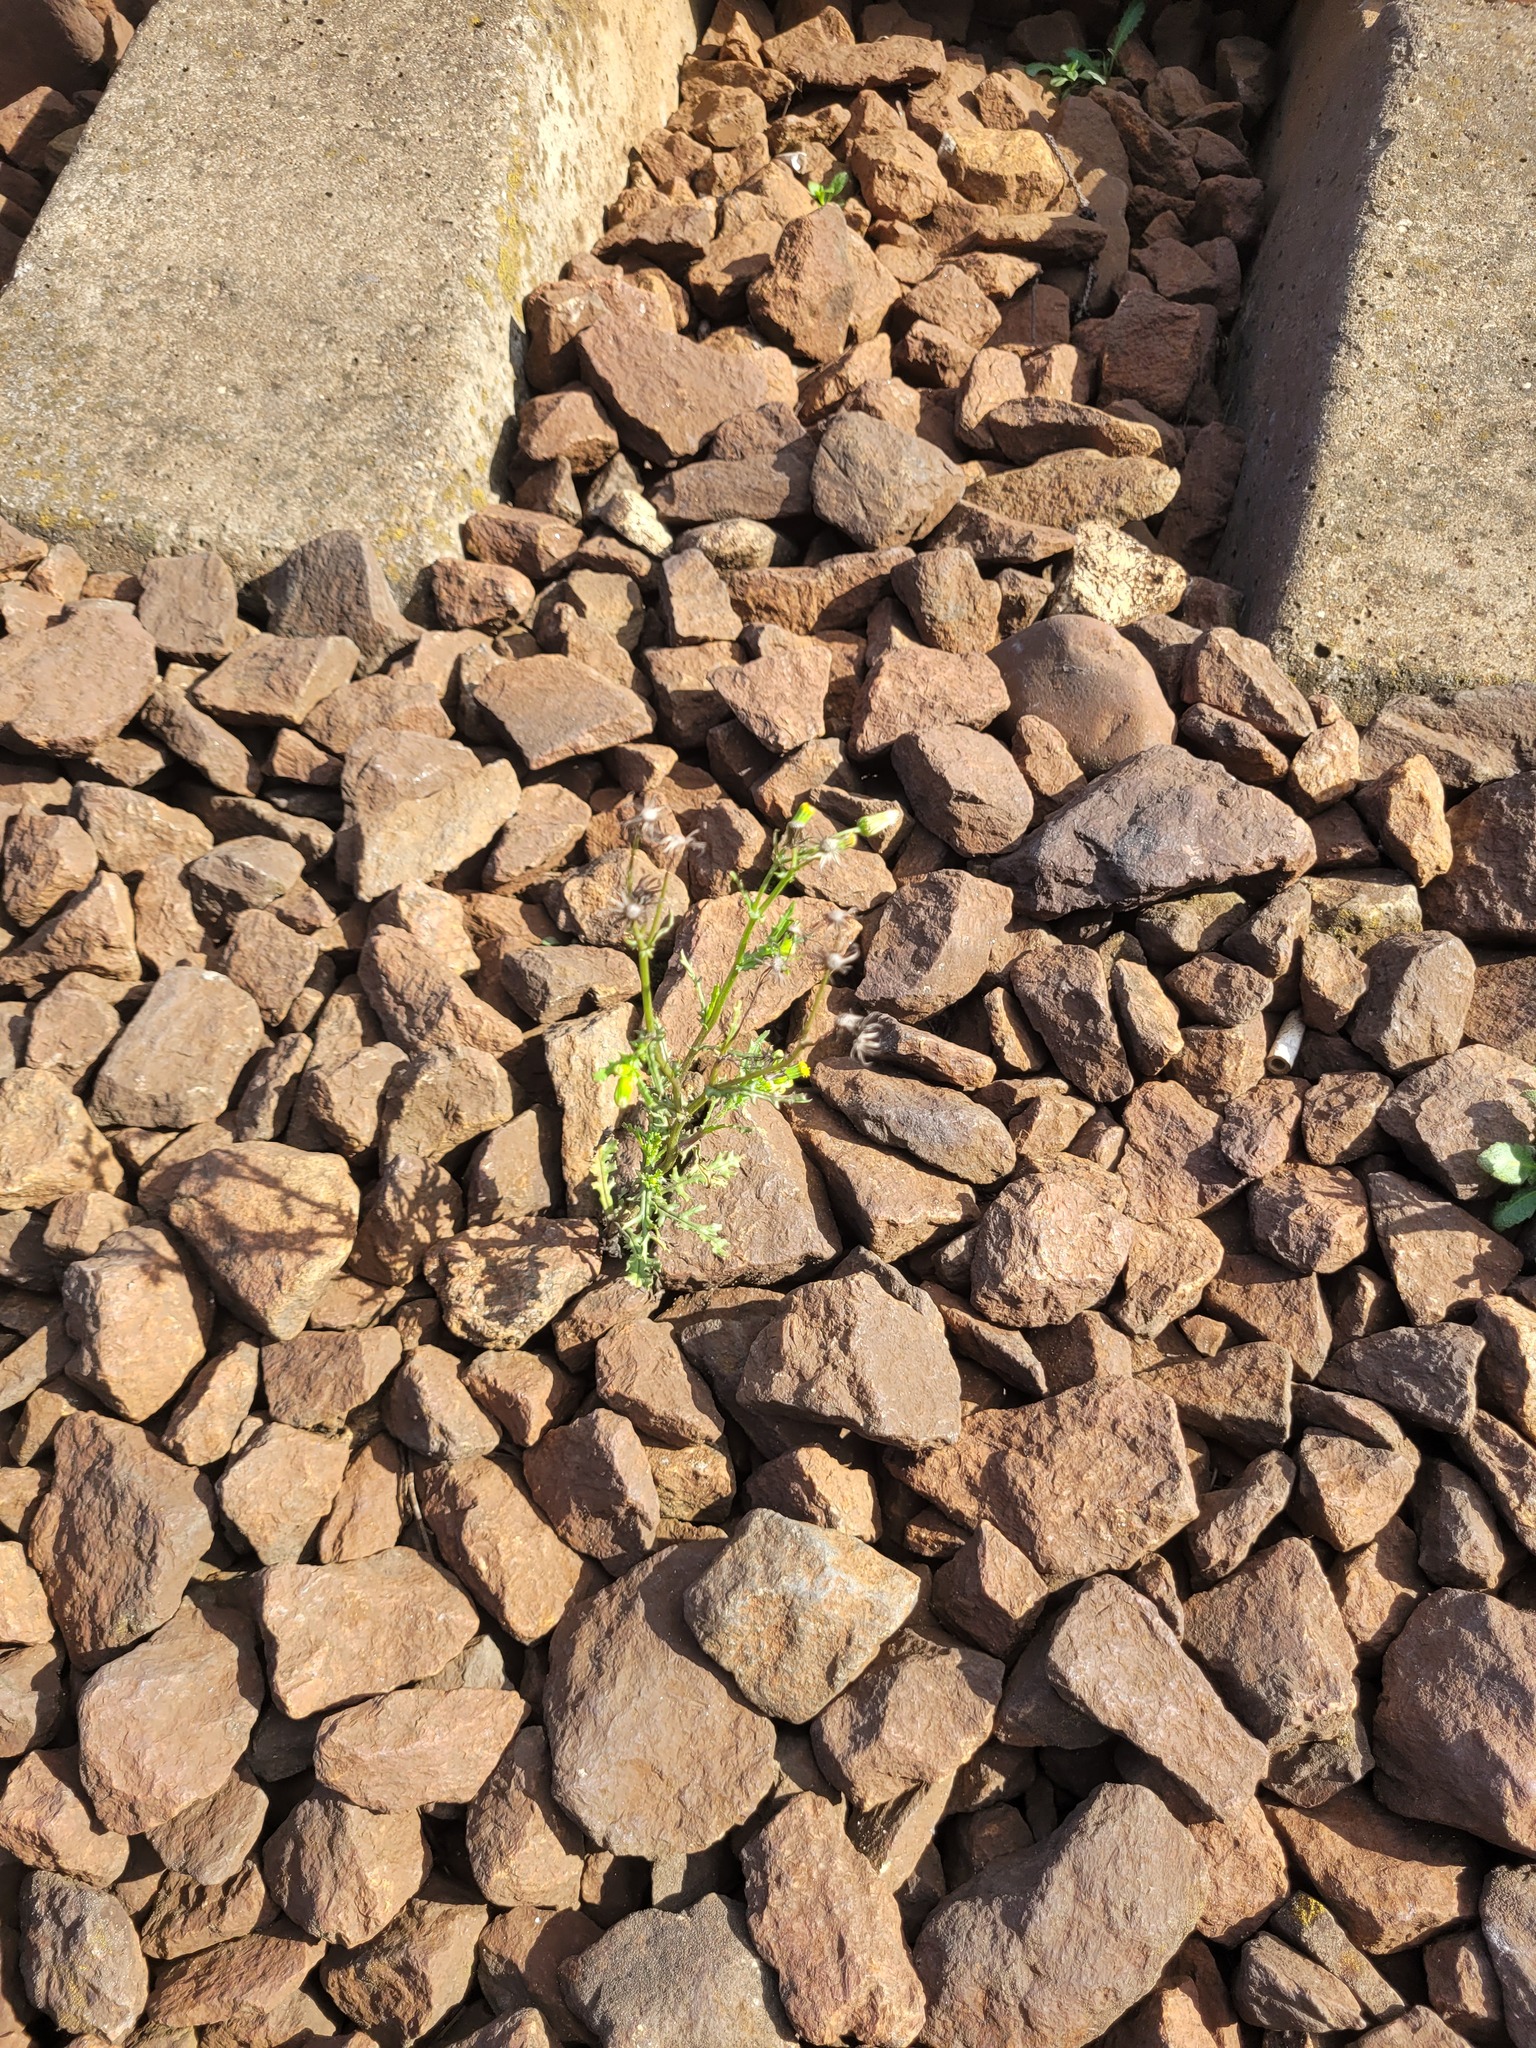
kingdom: Plantae
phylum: Tracheophyta
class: Magnoliopsida
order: Asterales
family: Asteraceae
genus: Senecio
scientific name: Senecio vulgaris
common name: Old-man-in-the-spring
